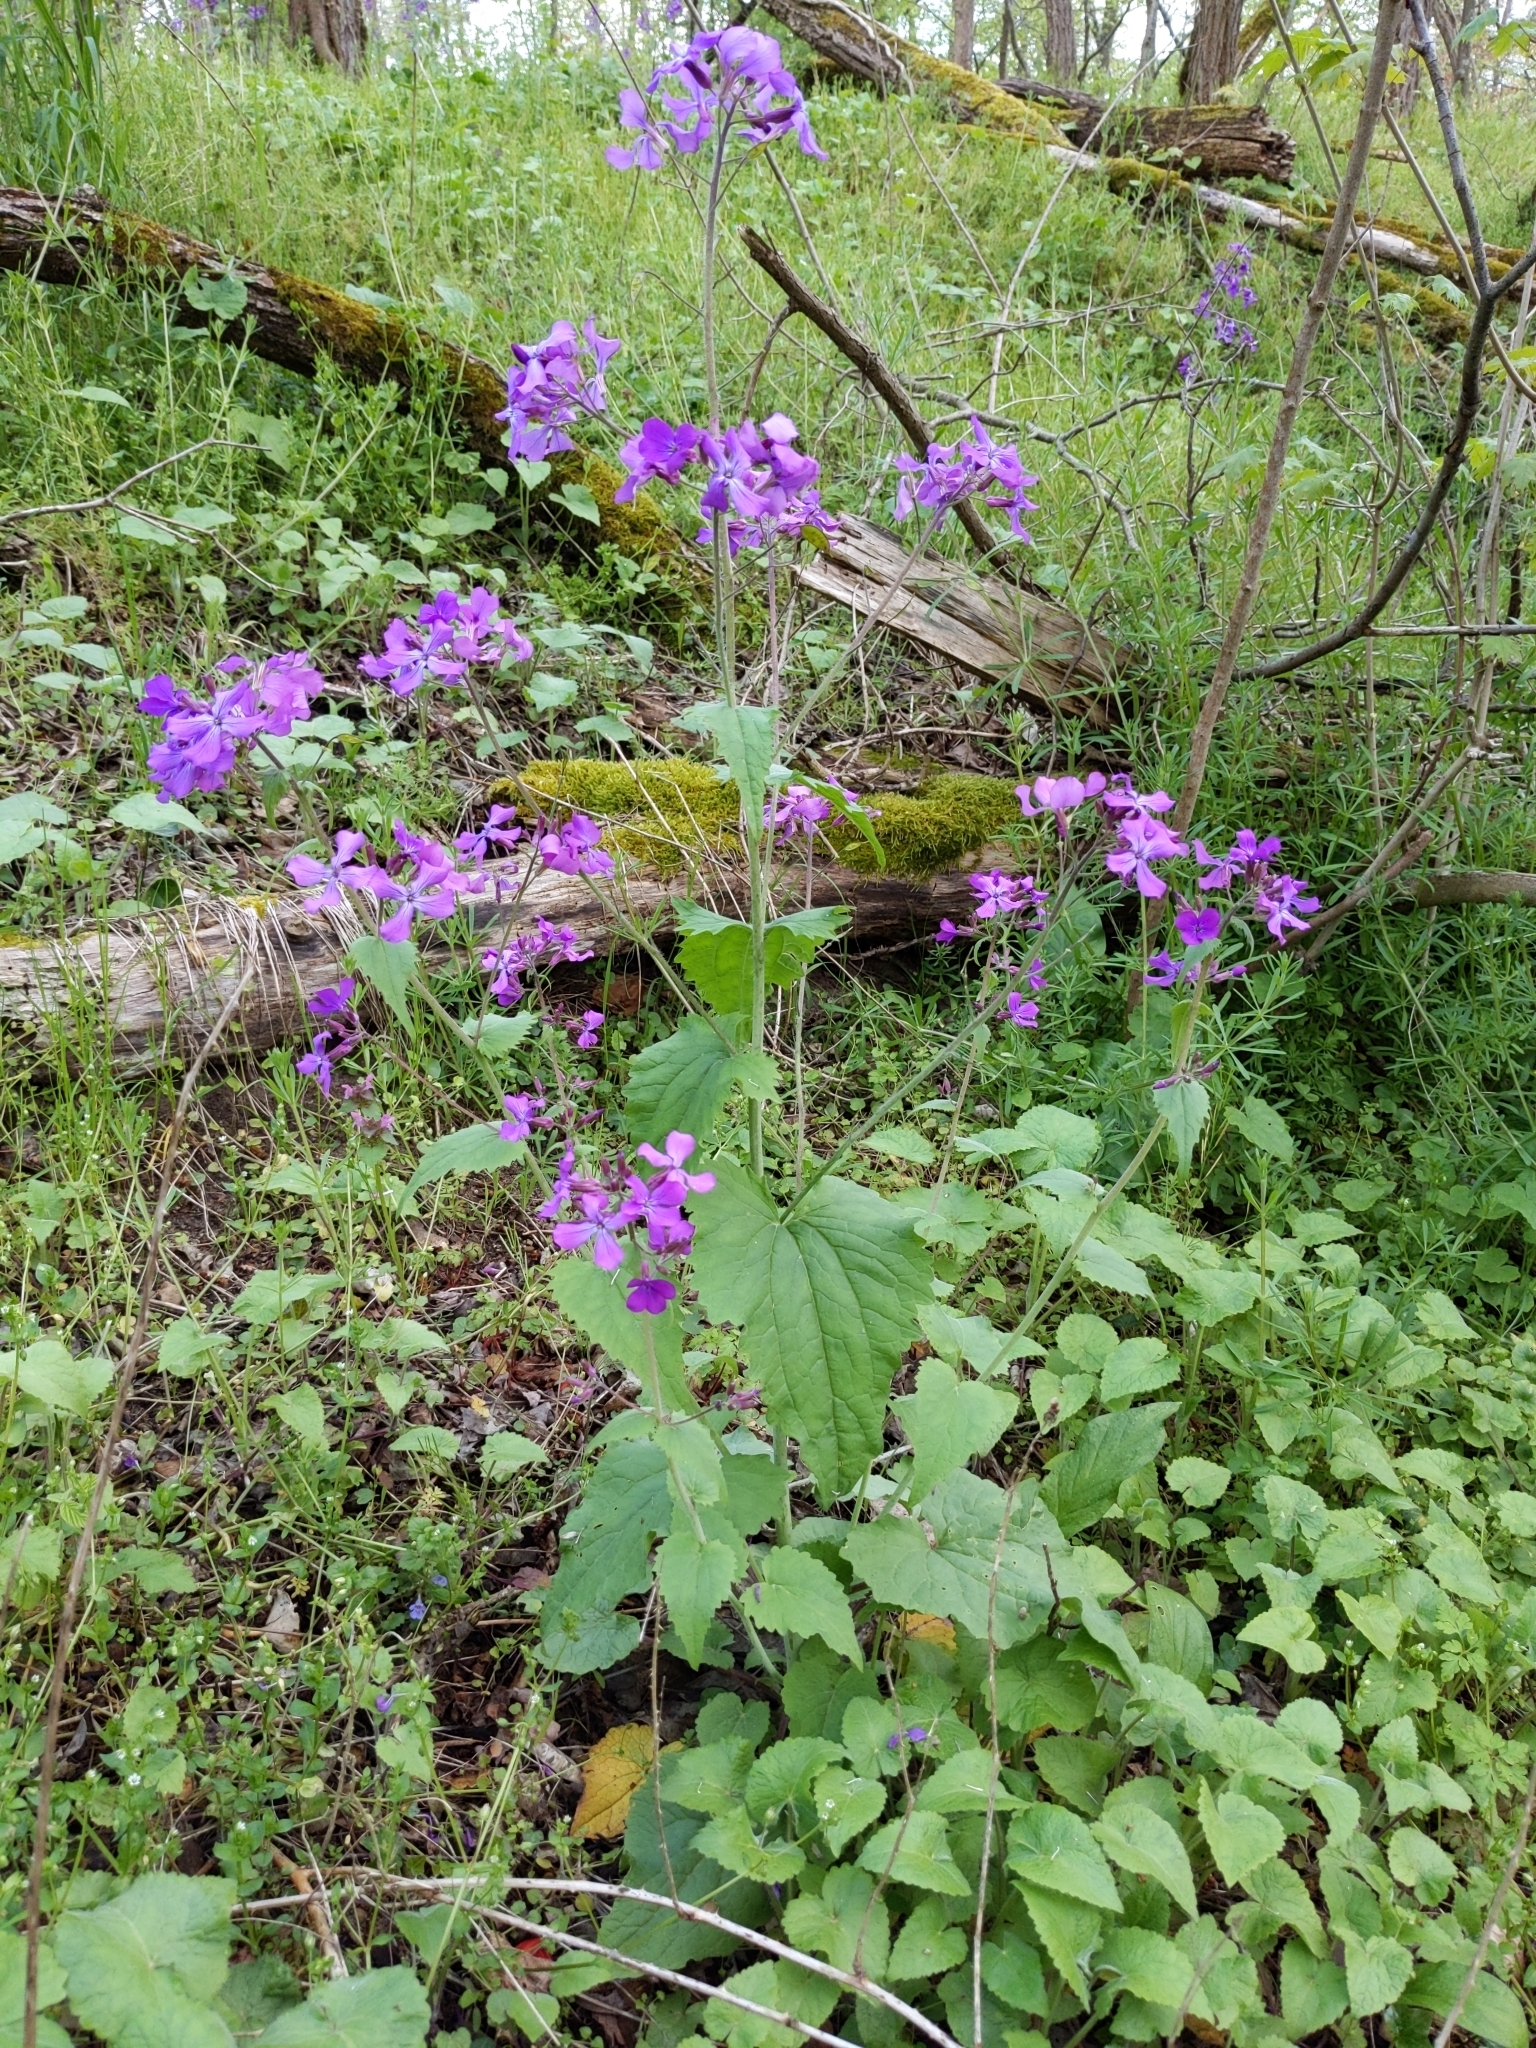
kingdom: Plantae
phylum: Tracheophyta
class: Magnoliopsida
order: Brassicales
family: Brassicaceae
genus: Lunaria
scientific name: Lunaria annua
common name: Honesty
